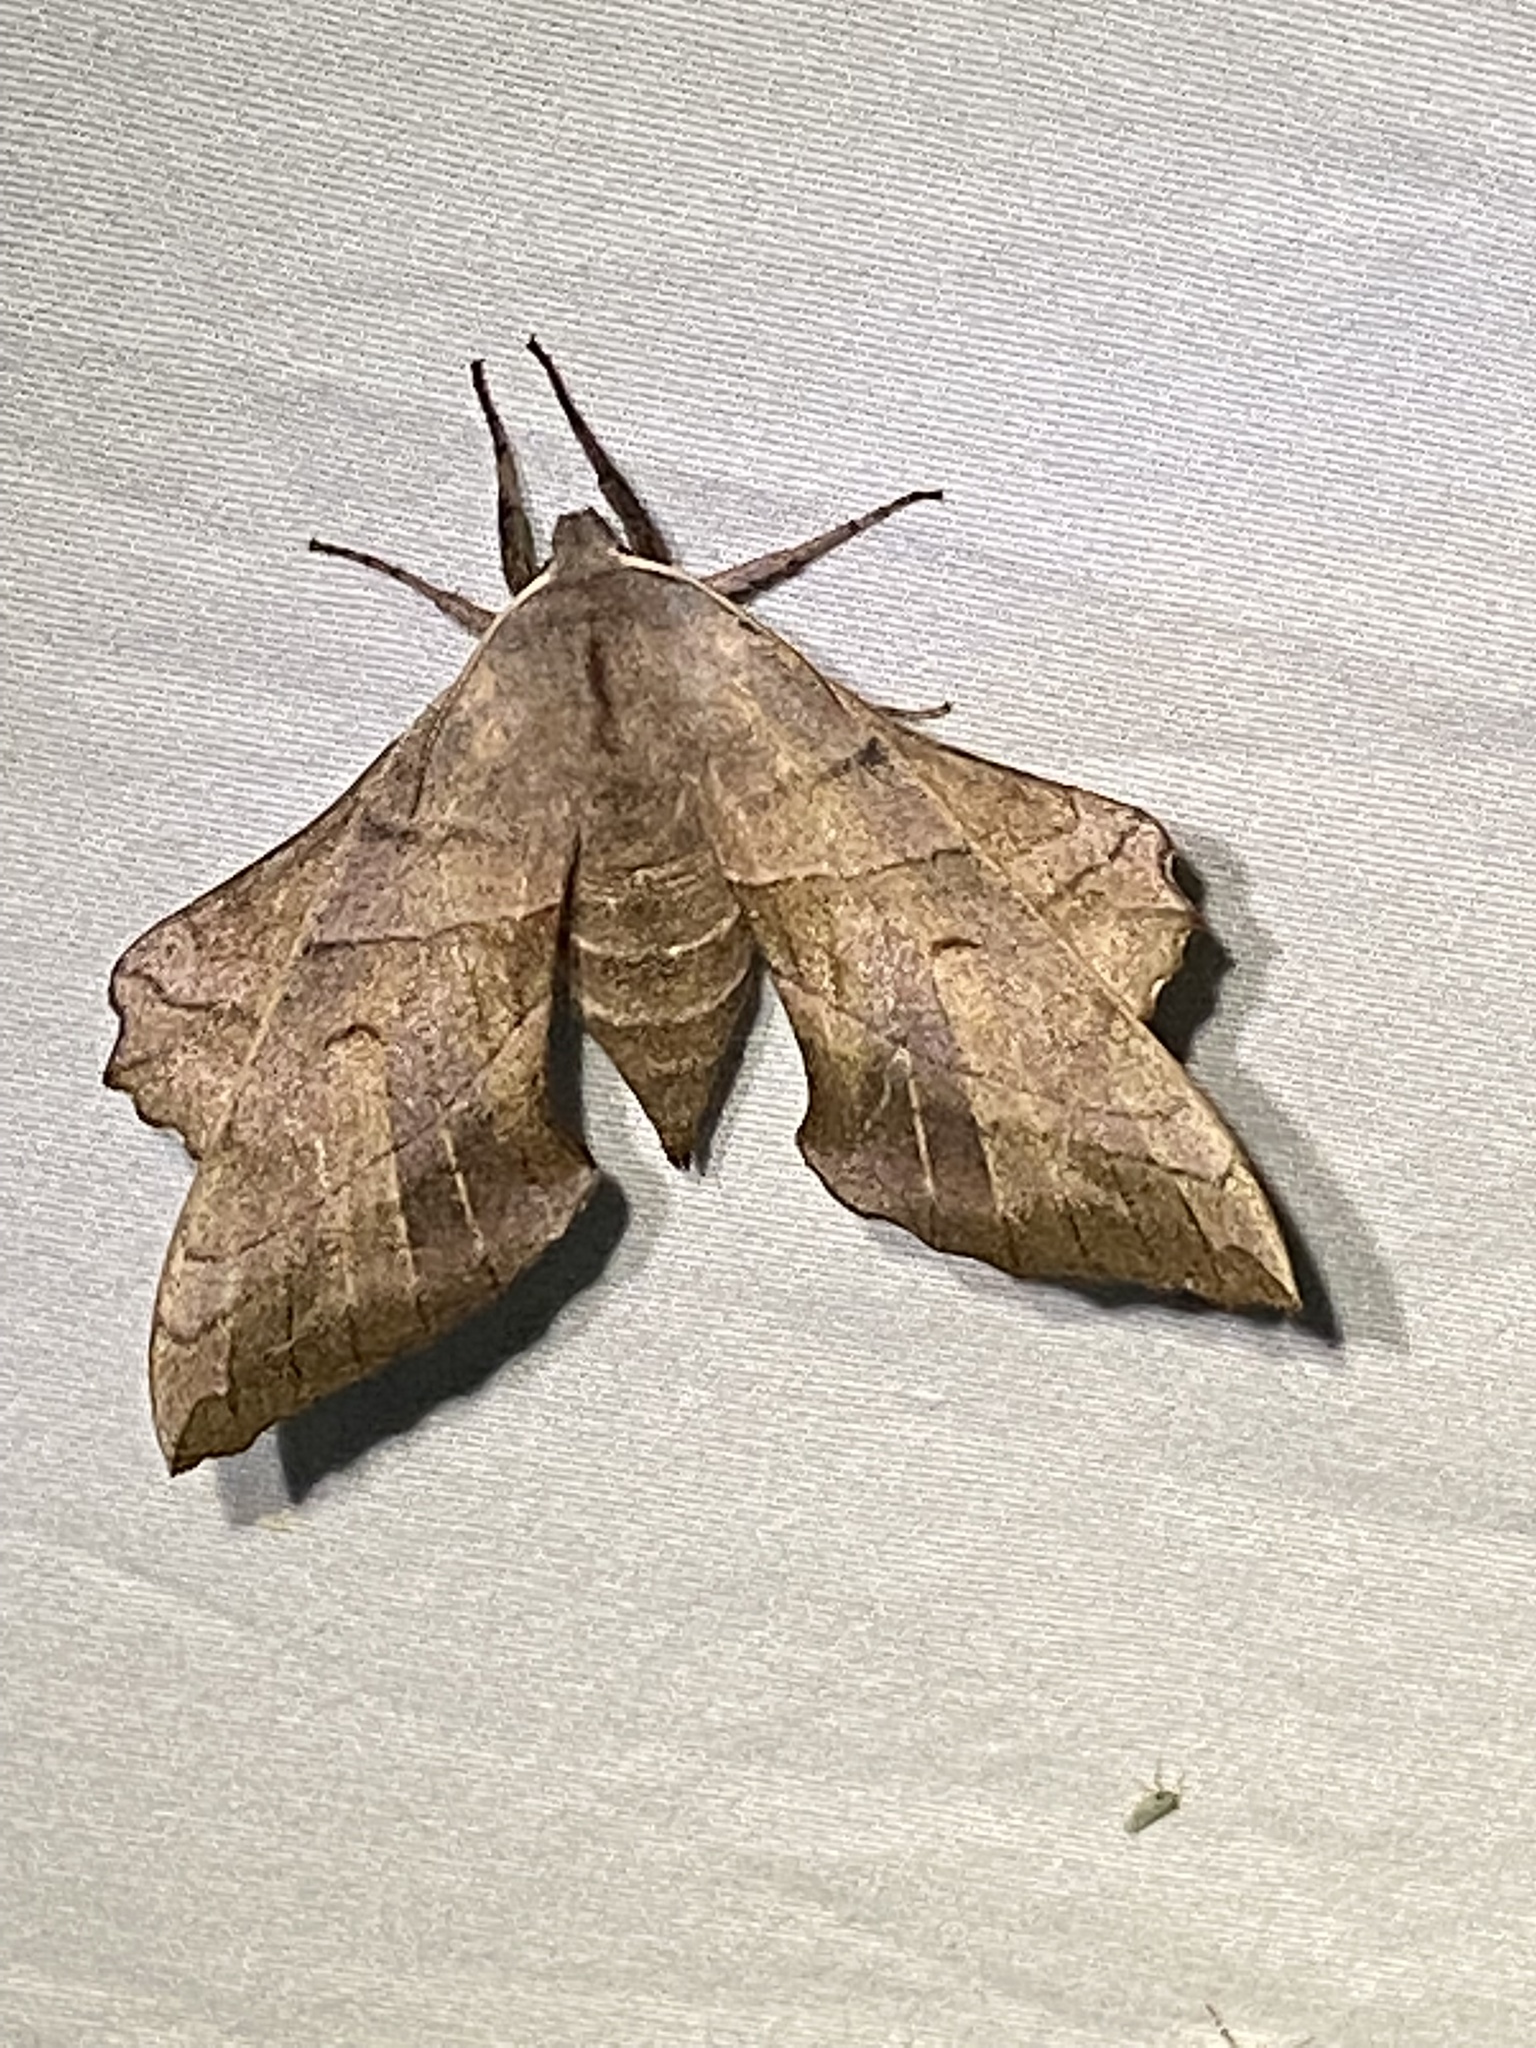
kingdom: Animalia
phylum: Arthropoda
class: Insecta
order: Lepidoptera
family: Sphingidae
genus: Amorpha
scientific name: Amorpha juglandis
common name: Walnut sphinx
